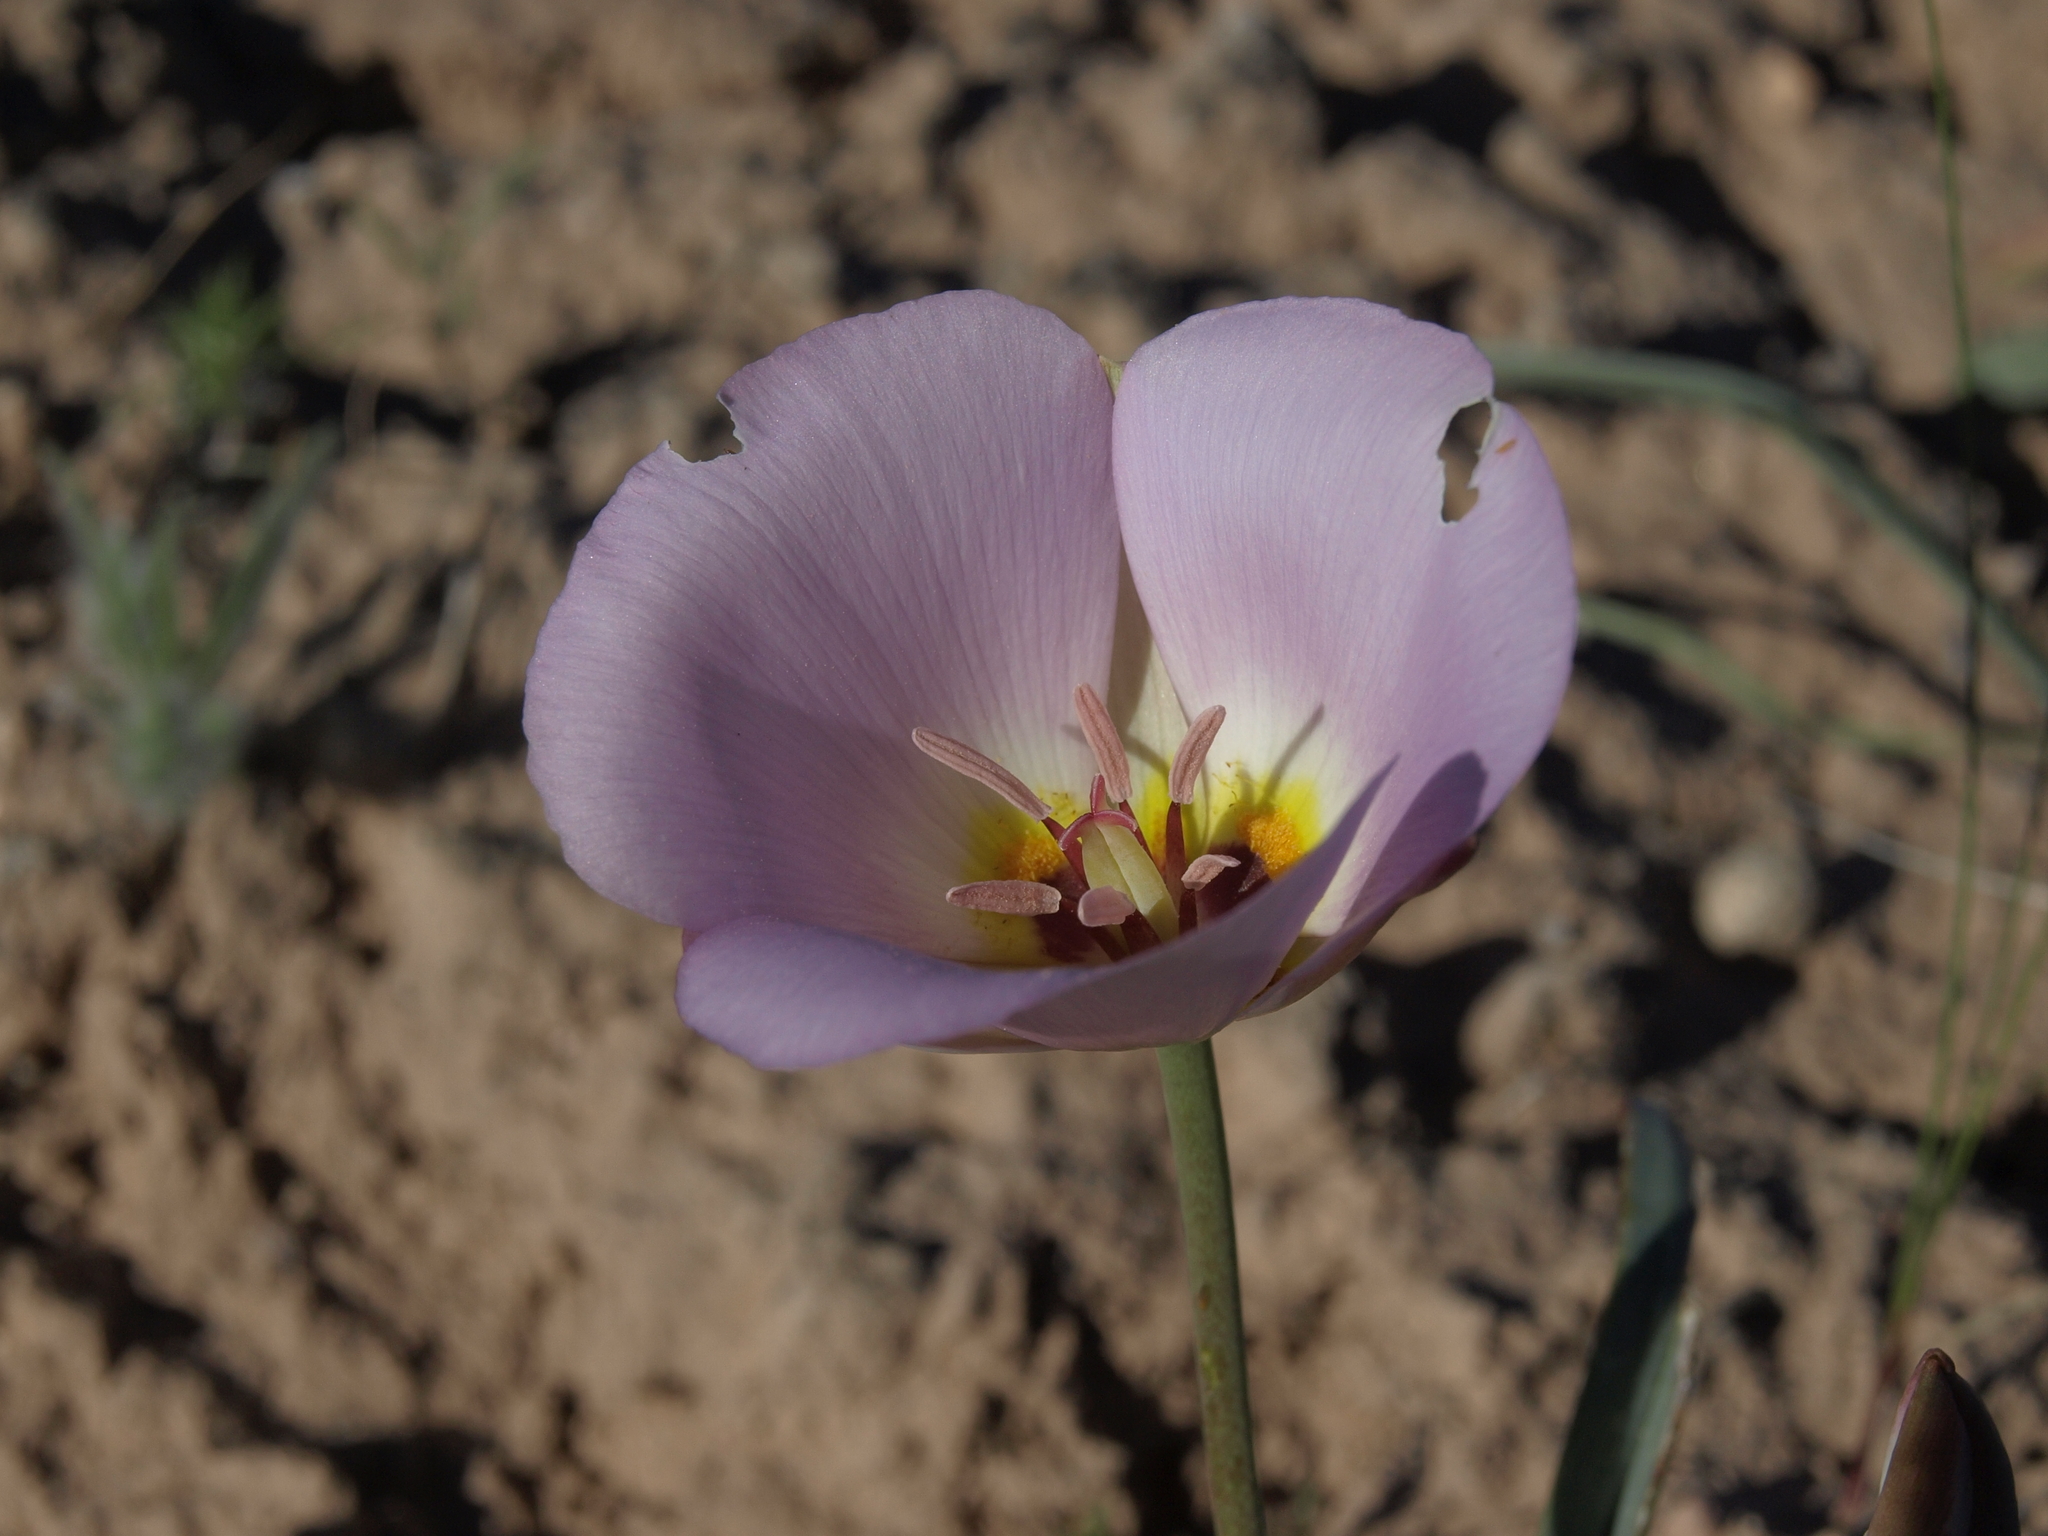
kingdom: Plantae
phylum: Tracheophyta
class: Liliopsida
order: Liliales
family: Liliaceae
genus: Calochortus
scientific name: Calochortus flexuosus
